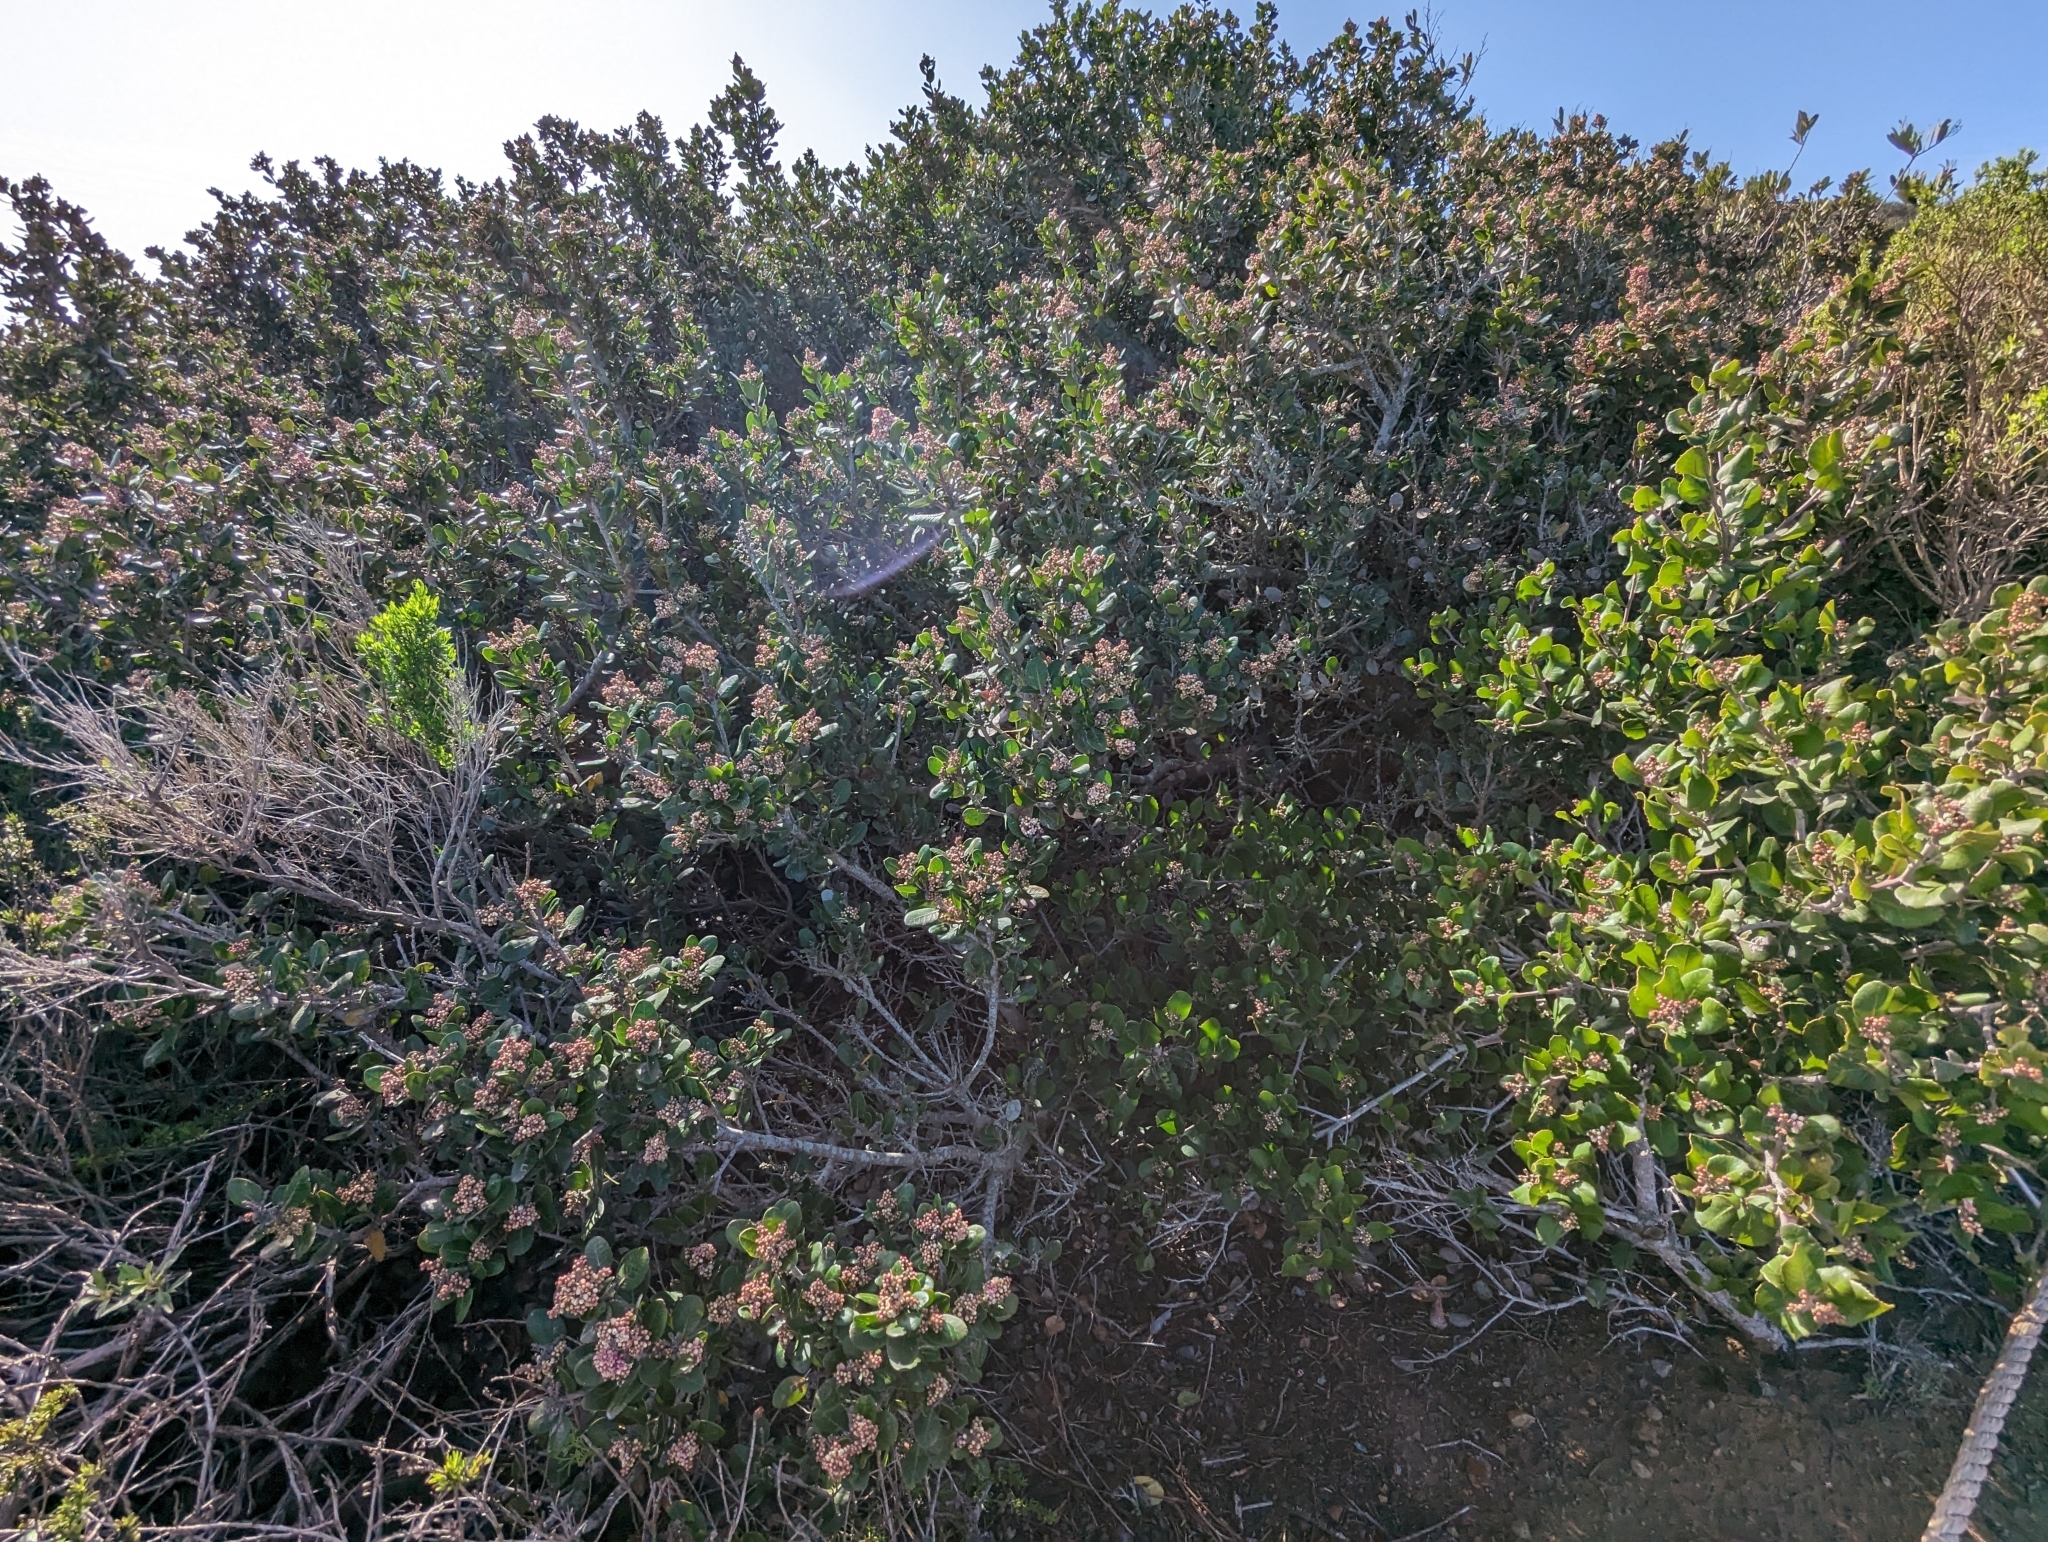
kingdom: Plantae
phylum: Tracheophyta
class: Magnoliopsida
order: Sapindales
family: Anacardiaceae
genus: Rhus
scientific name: Rhus integrifolia
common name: Lemonade sumac
